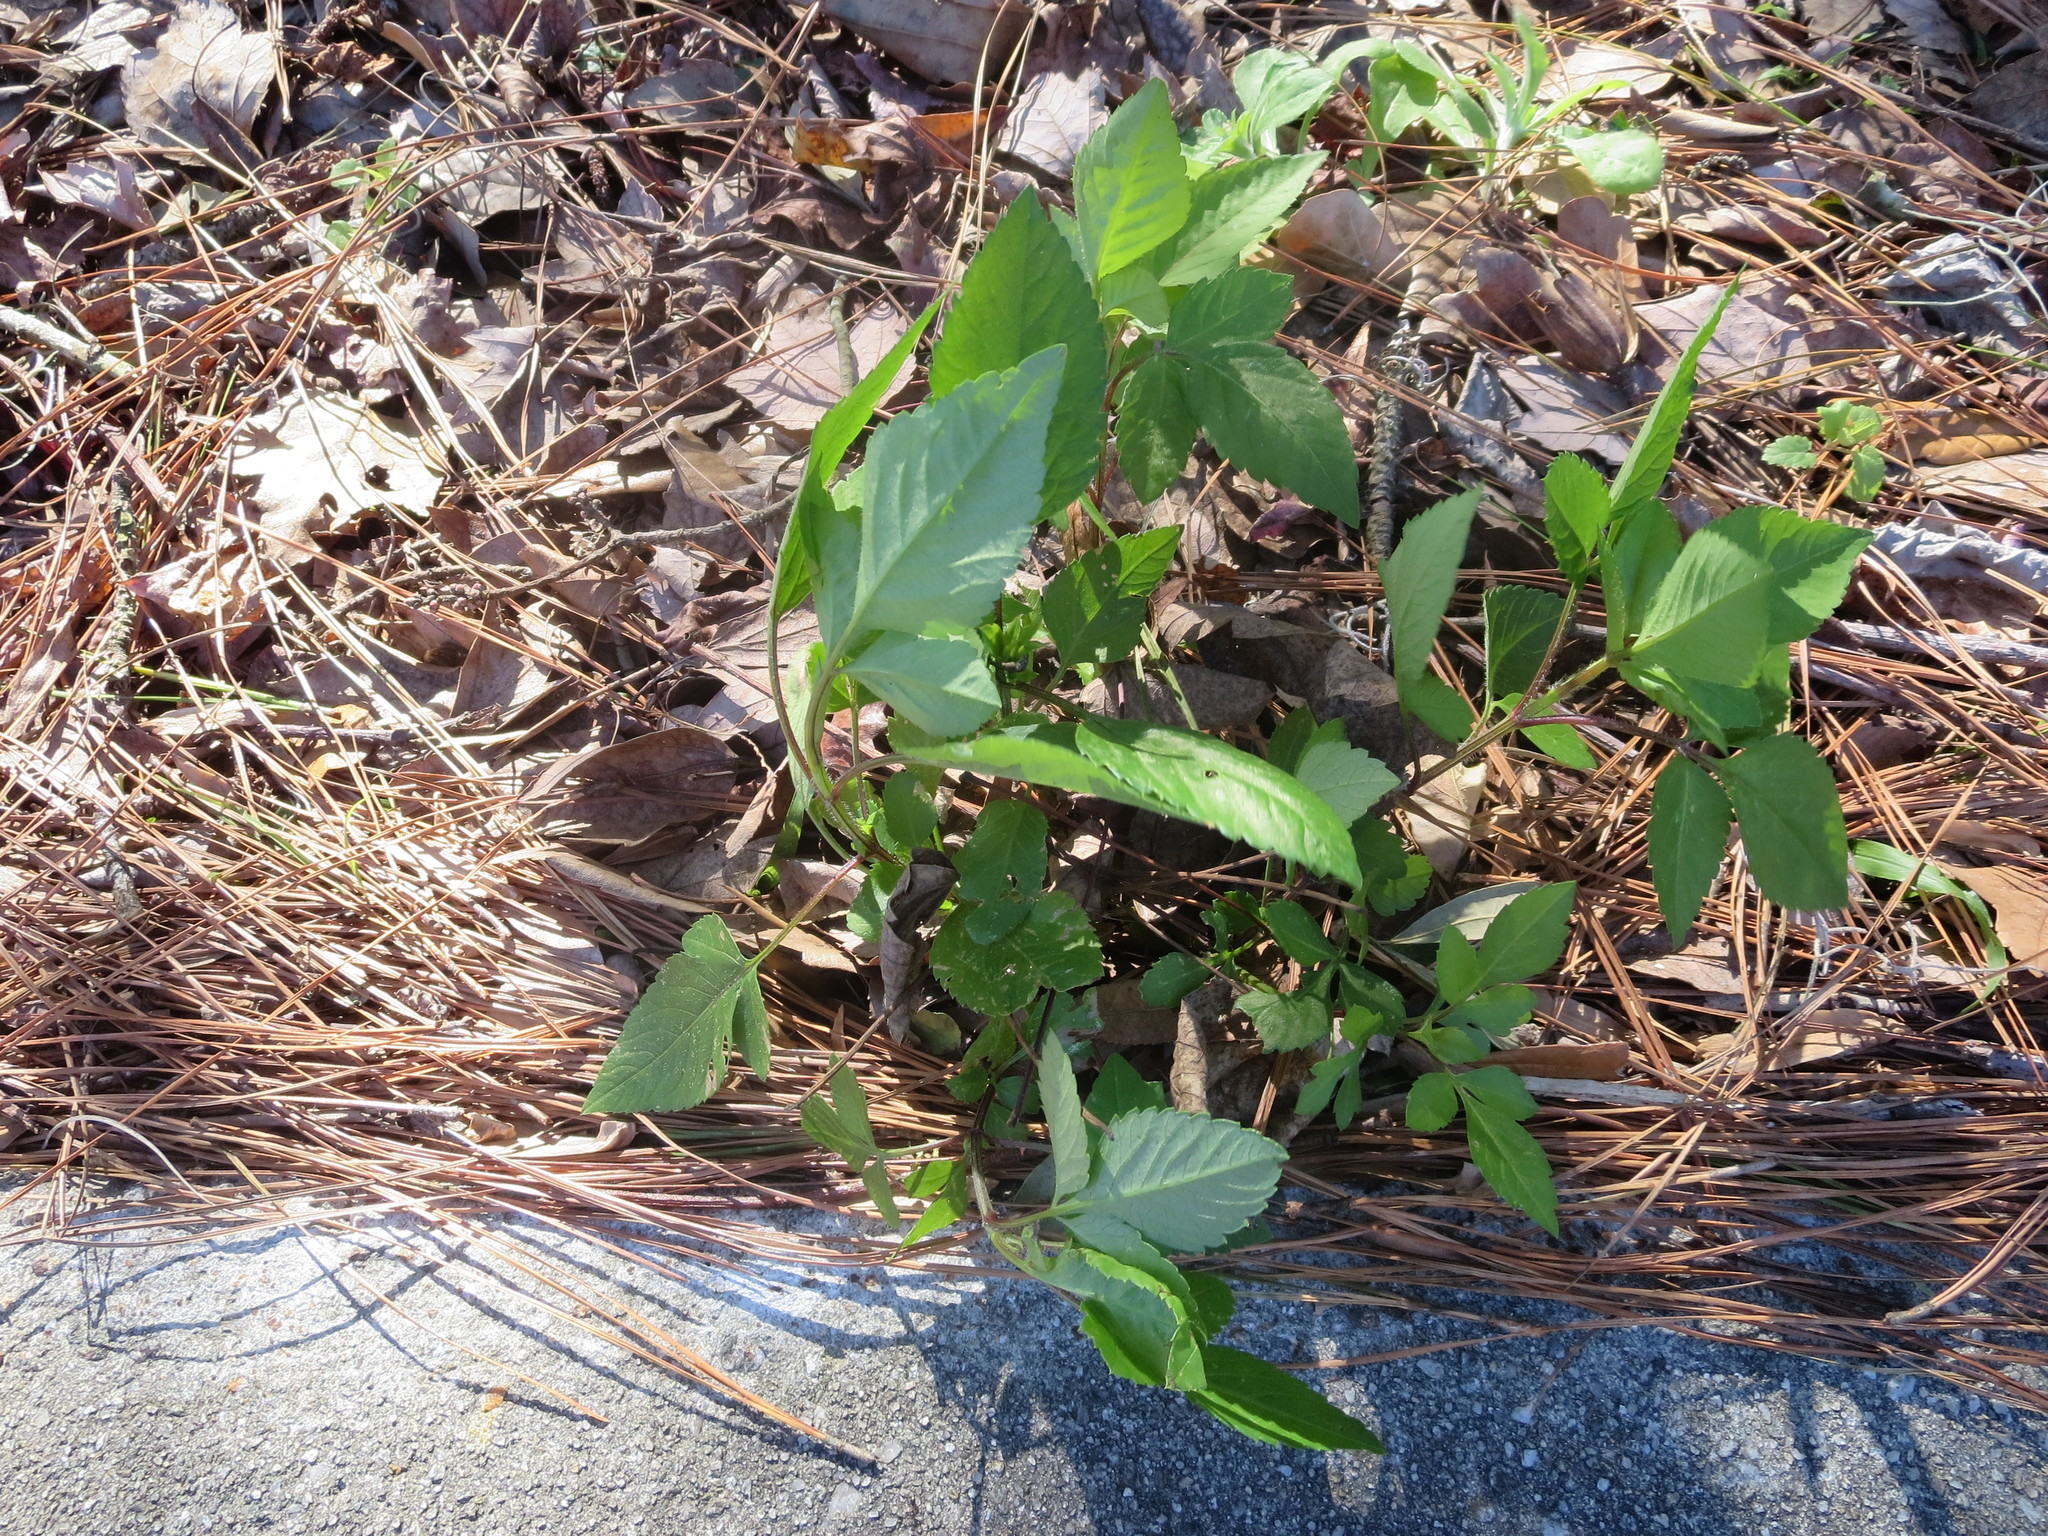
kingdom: Plantae
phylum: Tracheophyta
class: Magnoliopsida
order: Asterales
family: Asteraceae
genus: Bidens
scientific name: Bidens alba
